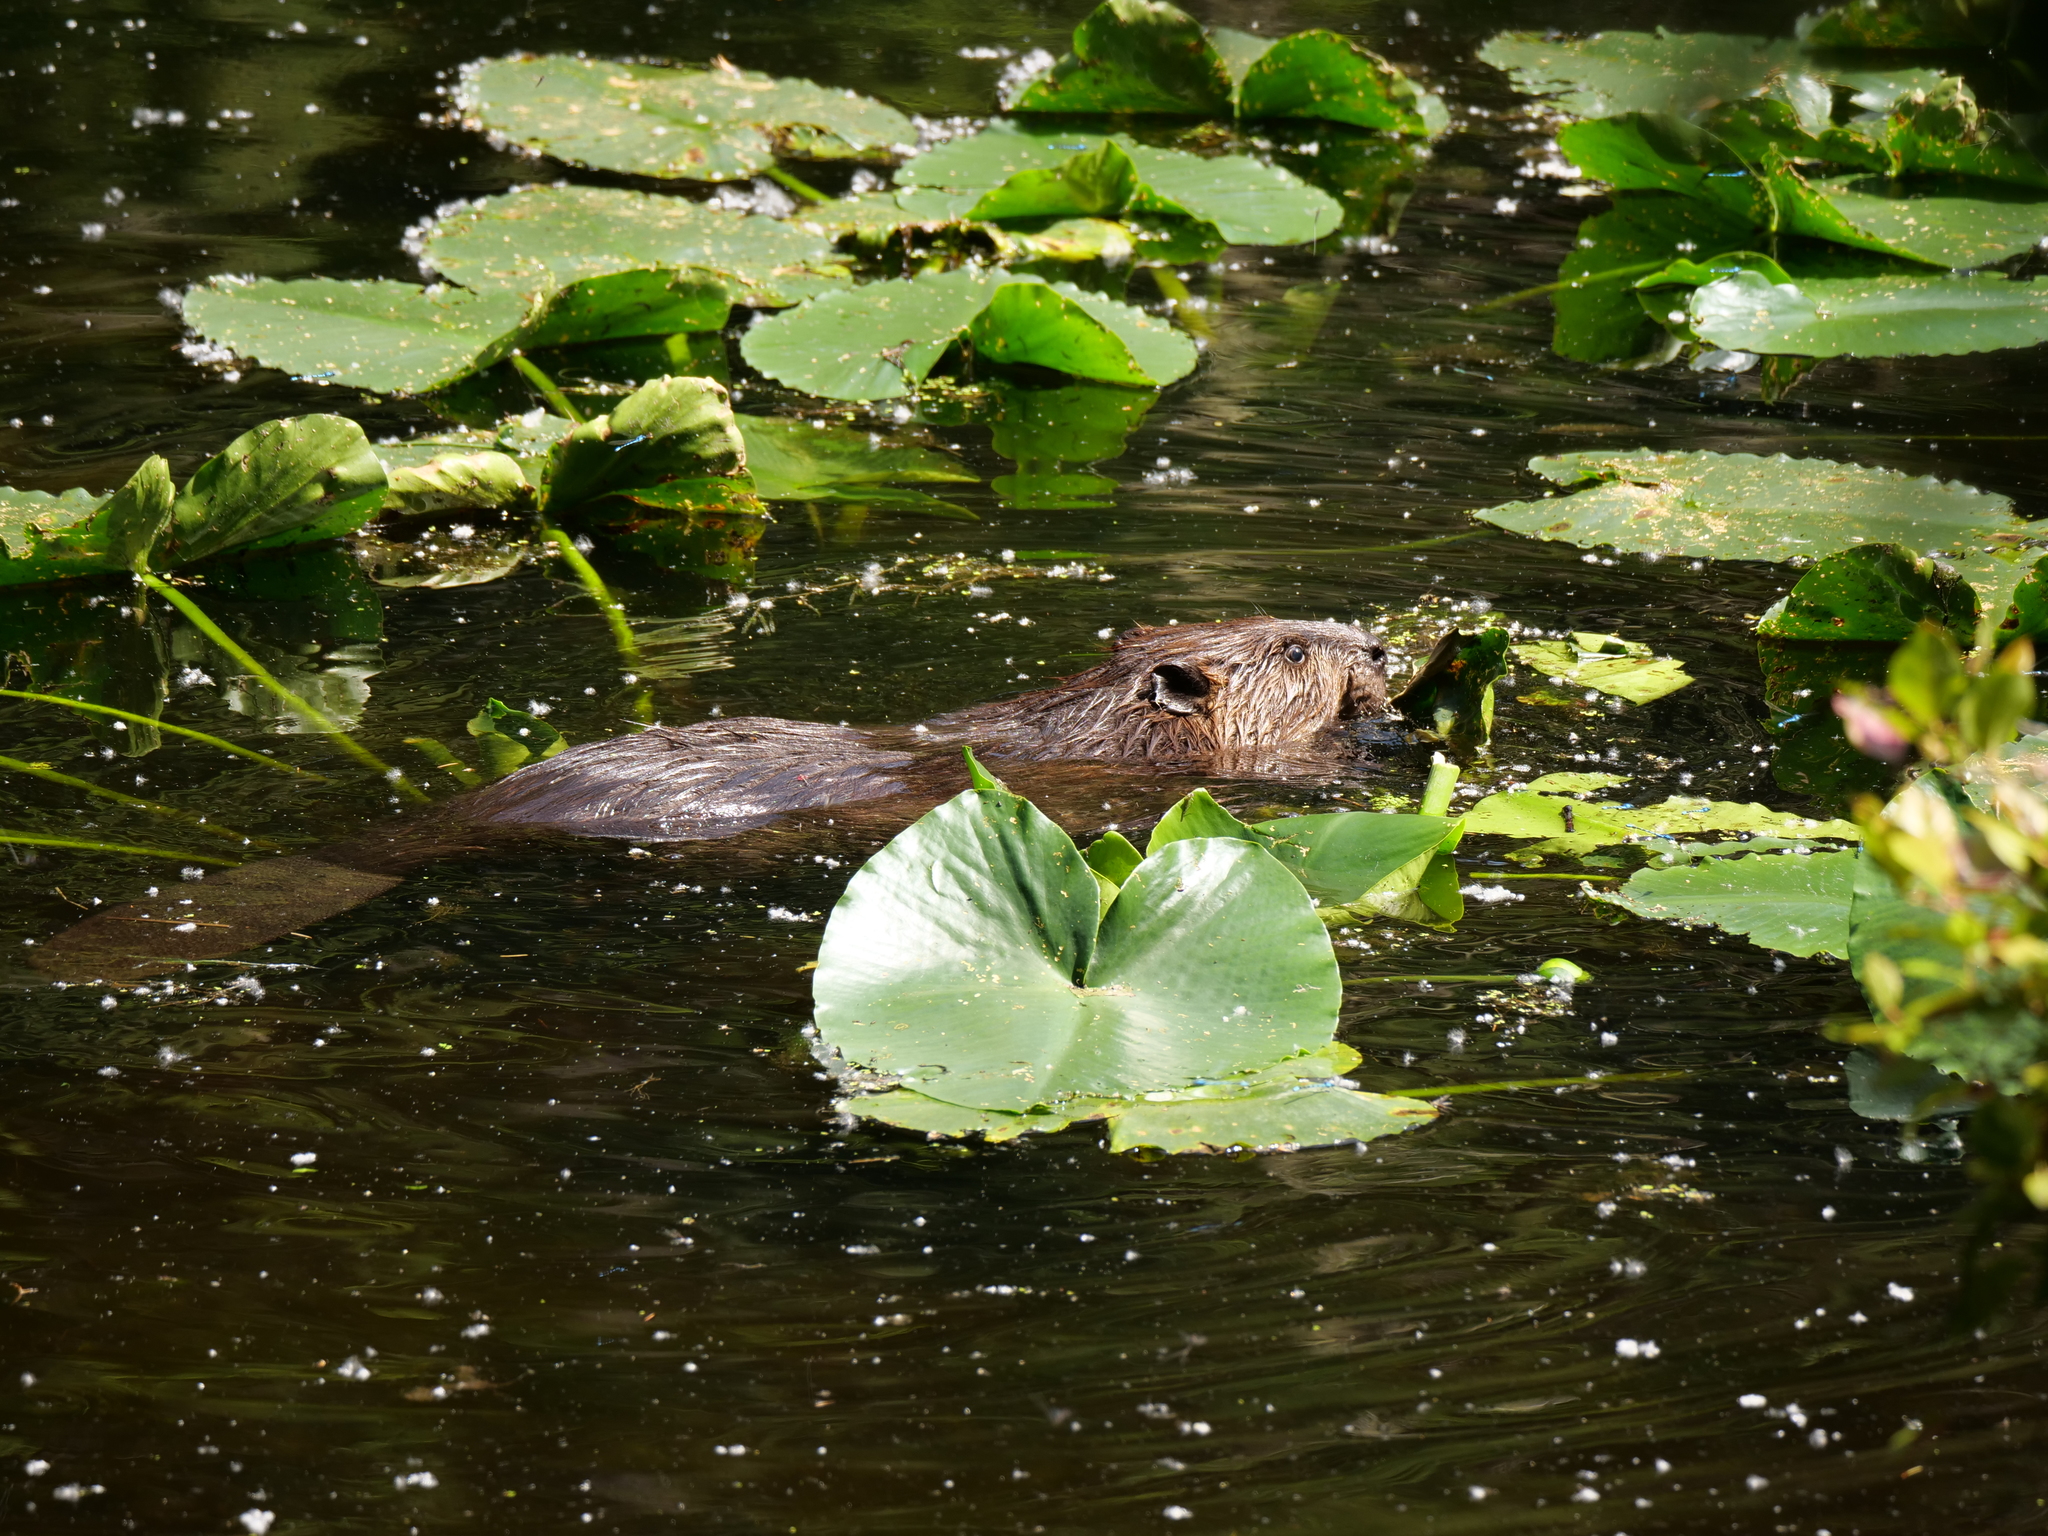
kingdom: Animalia
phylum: Chordata
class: Mammalia
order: Rodentia
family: Castoridae
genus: Castor
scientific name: Castor canadensis
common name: American beaver
